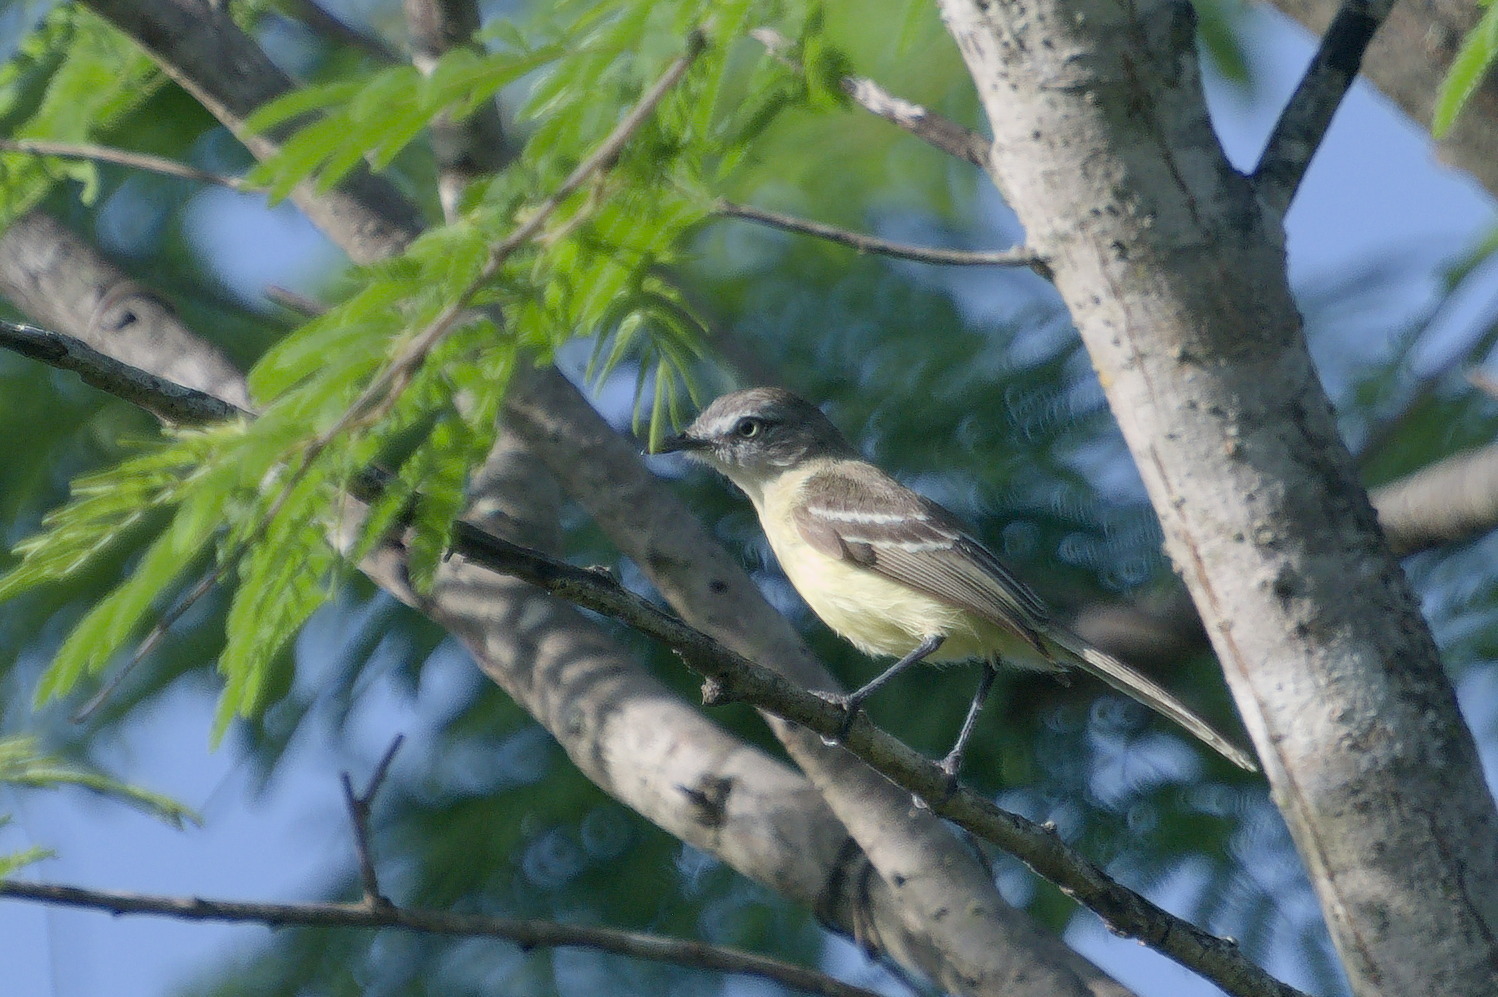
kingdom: Animalia
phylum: Chordata
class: Aves
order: Passeriformes
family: Tyrannidae
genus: Inezia
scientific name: Inezia caudata
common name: Pale-tipped inezia
